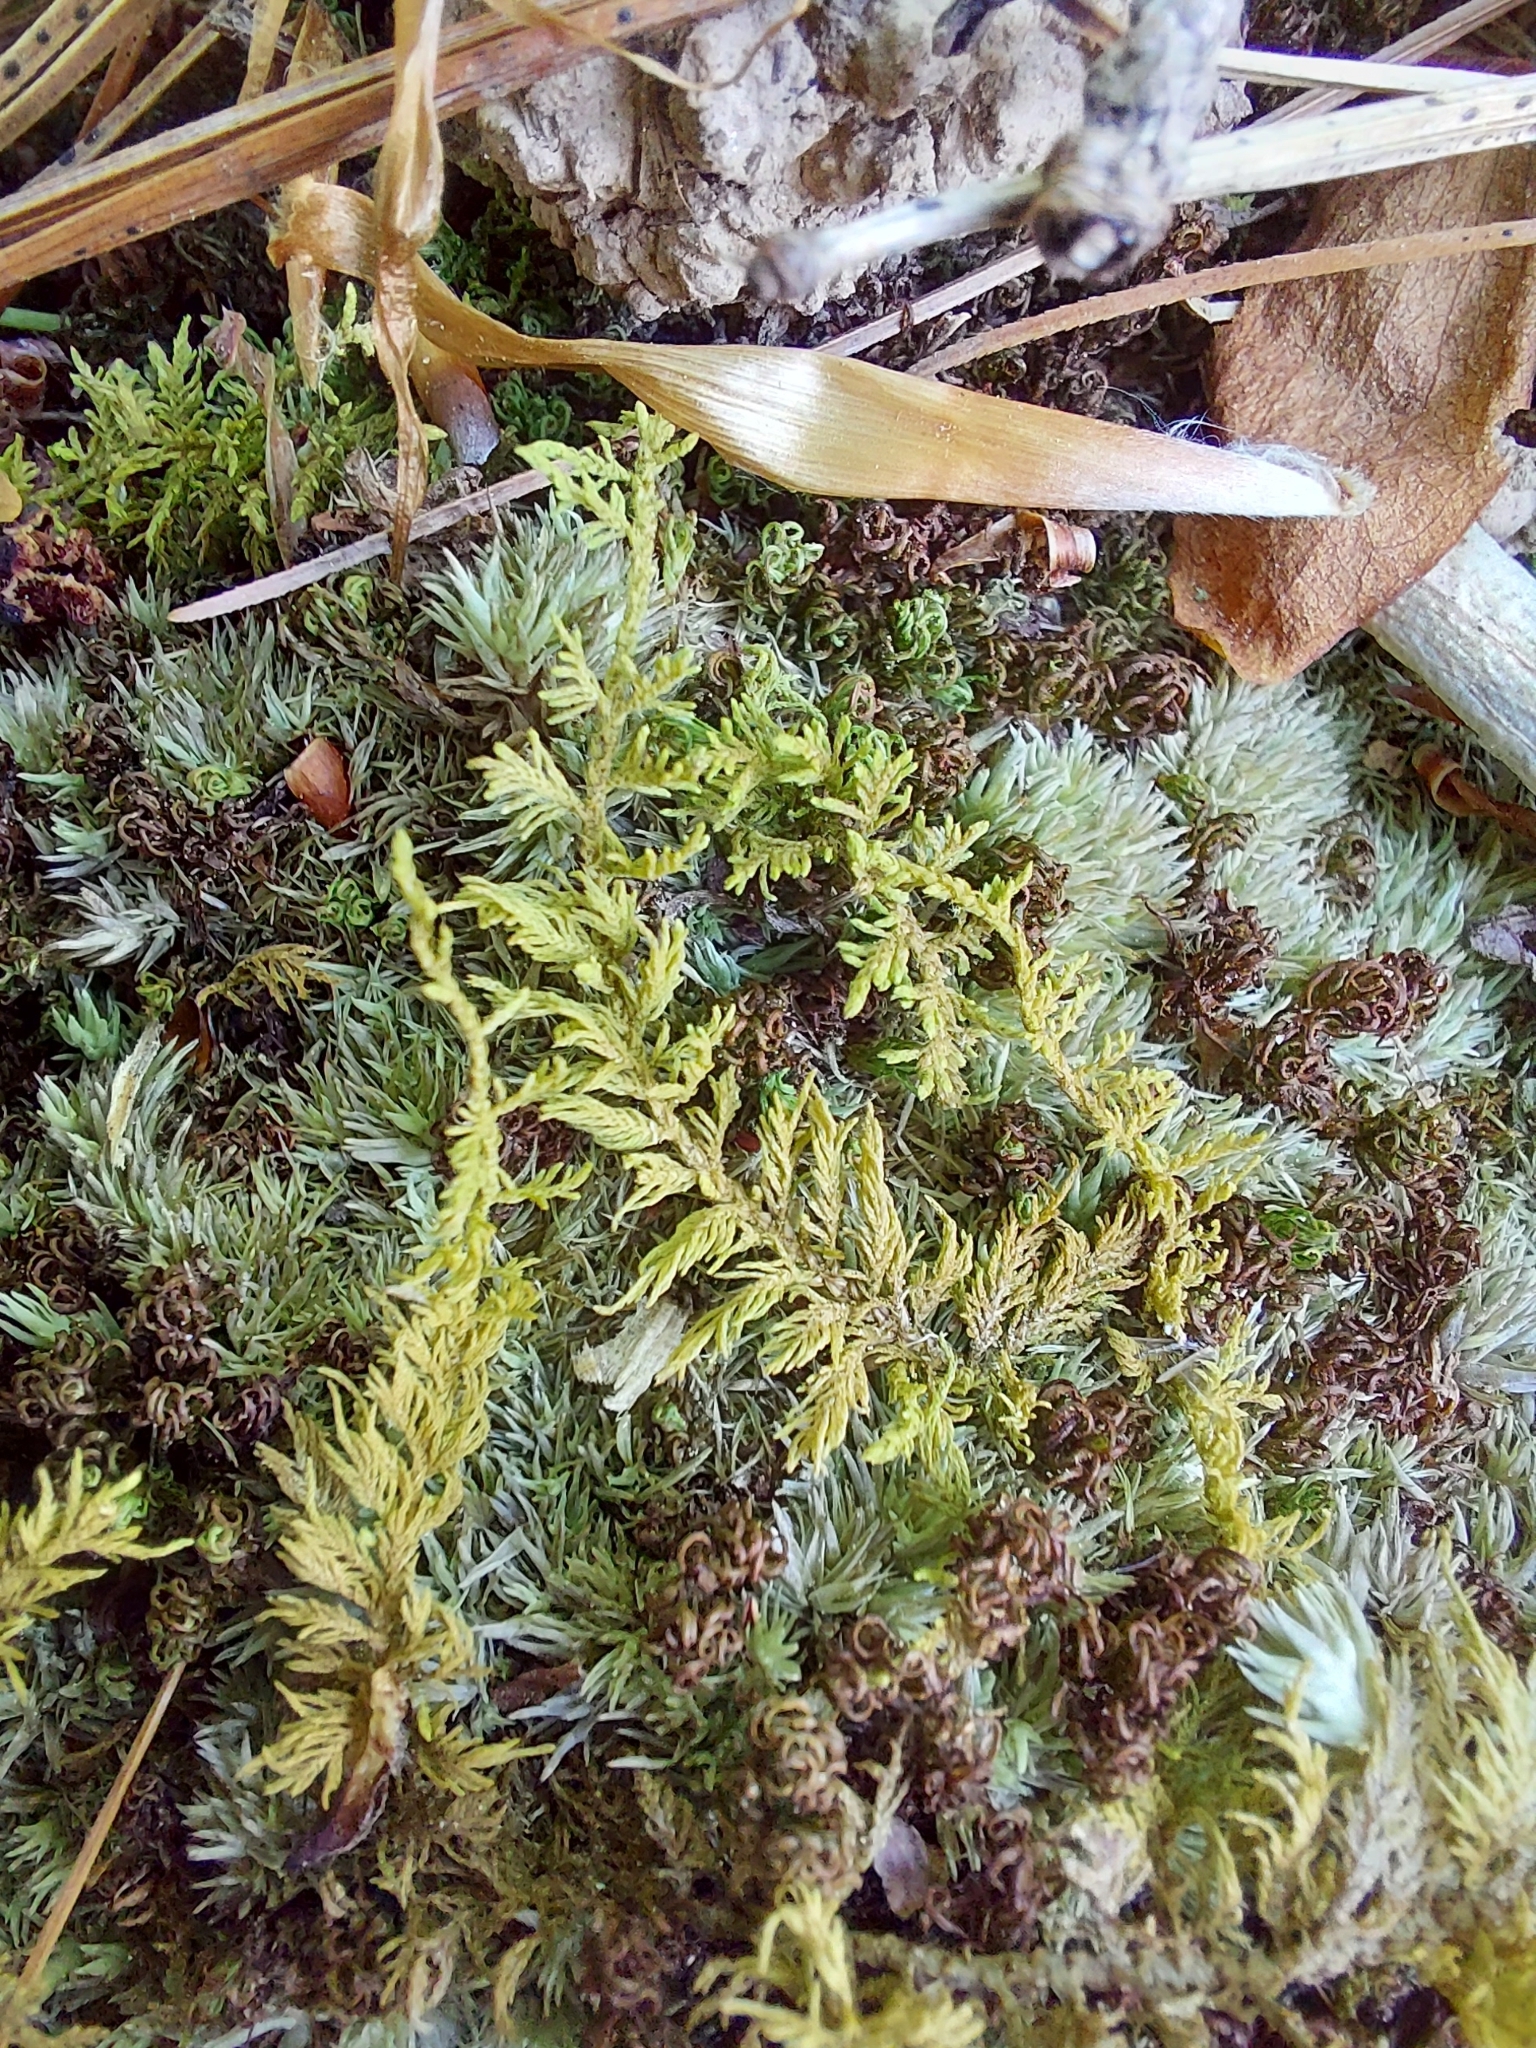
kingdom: Plantae
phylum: Bryophyta
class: Bryopsida
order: Hypnales
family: Thuidiaceae
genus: Thuidium
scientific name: Thuidium delicatulum
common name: Delicate fern moss
